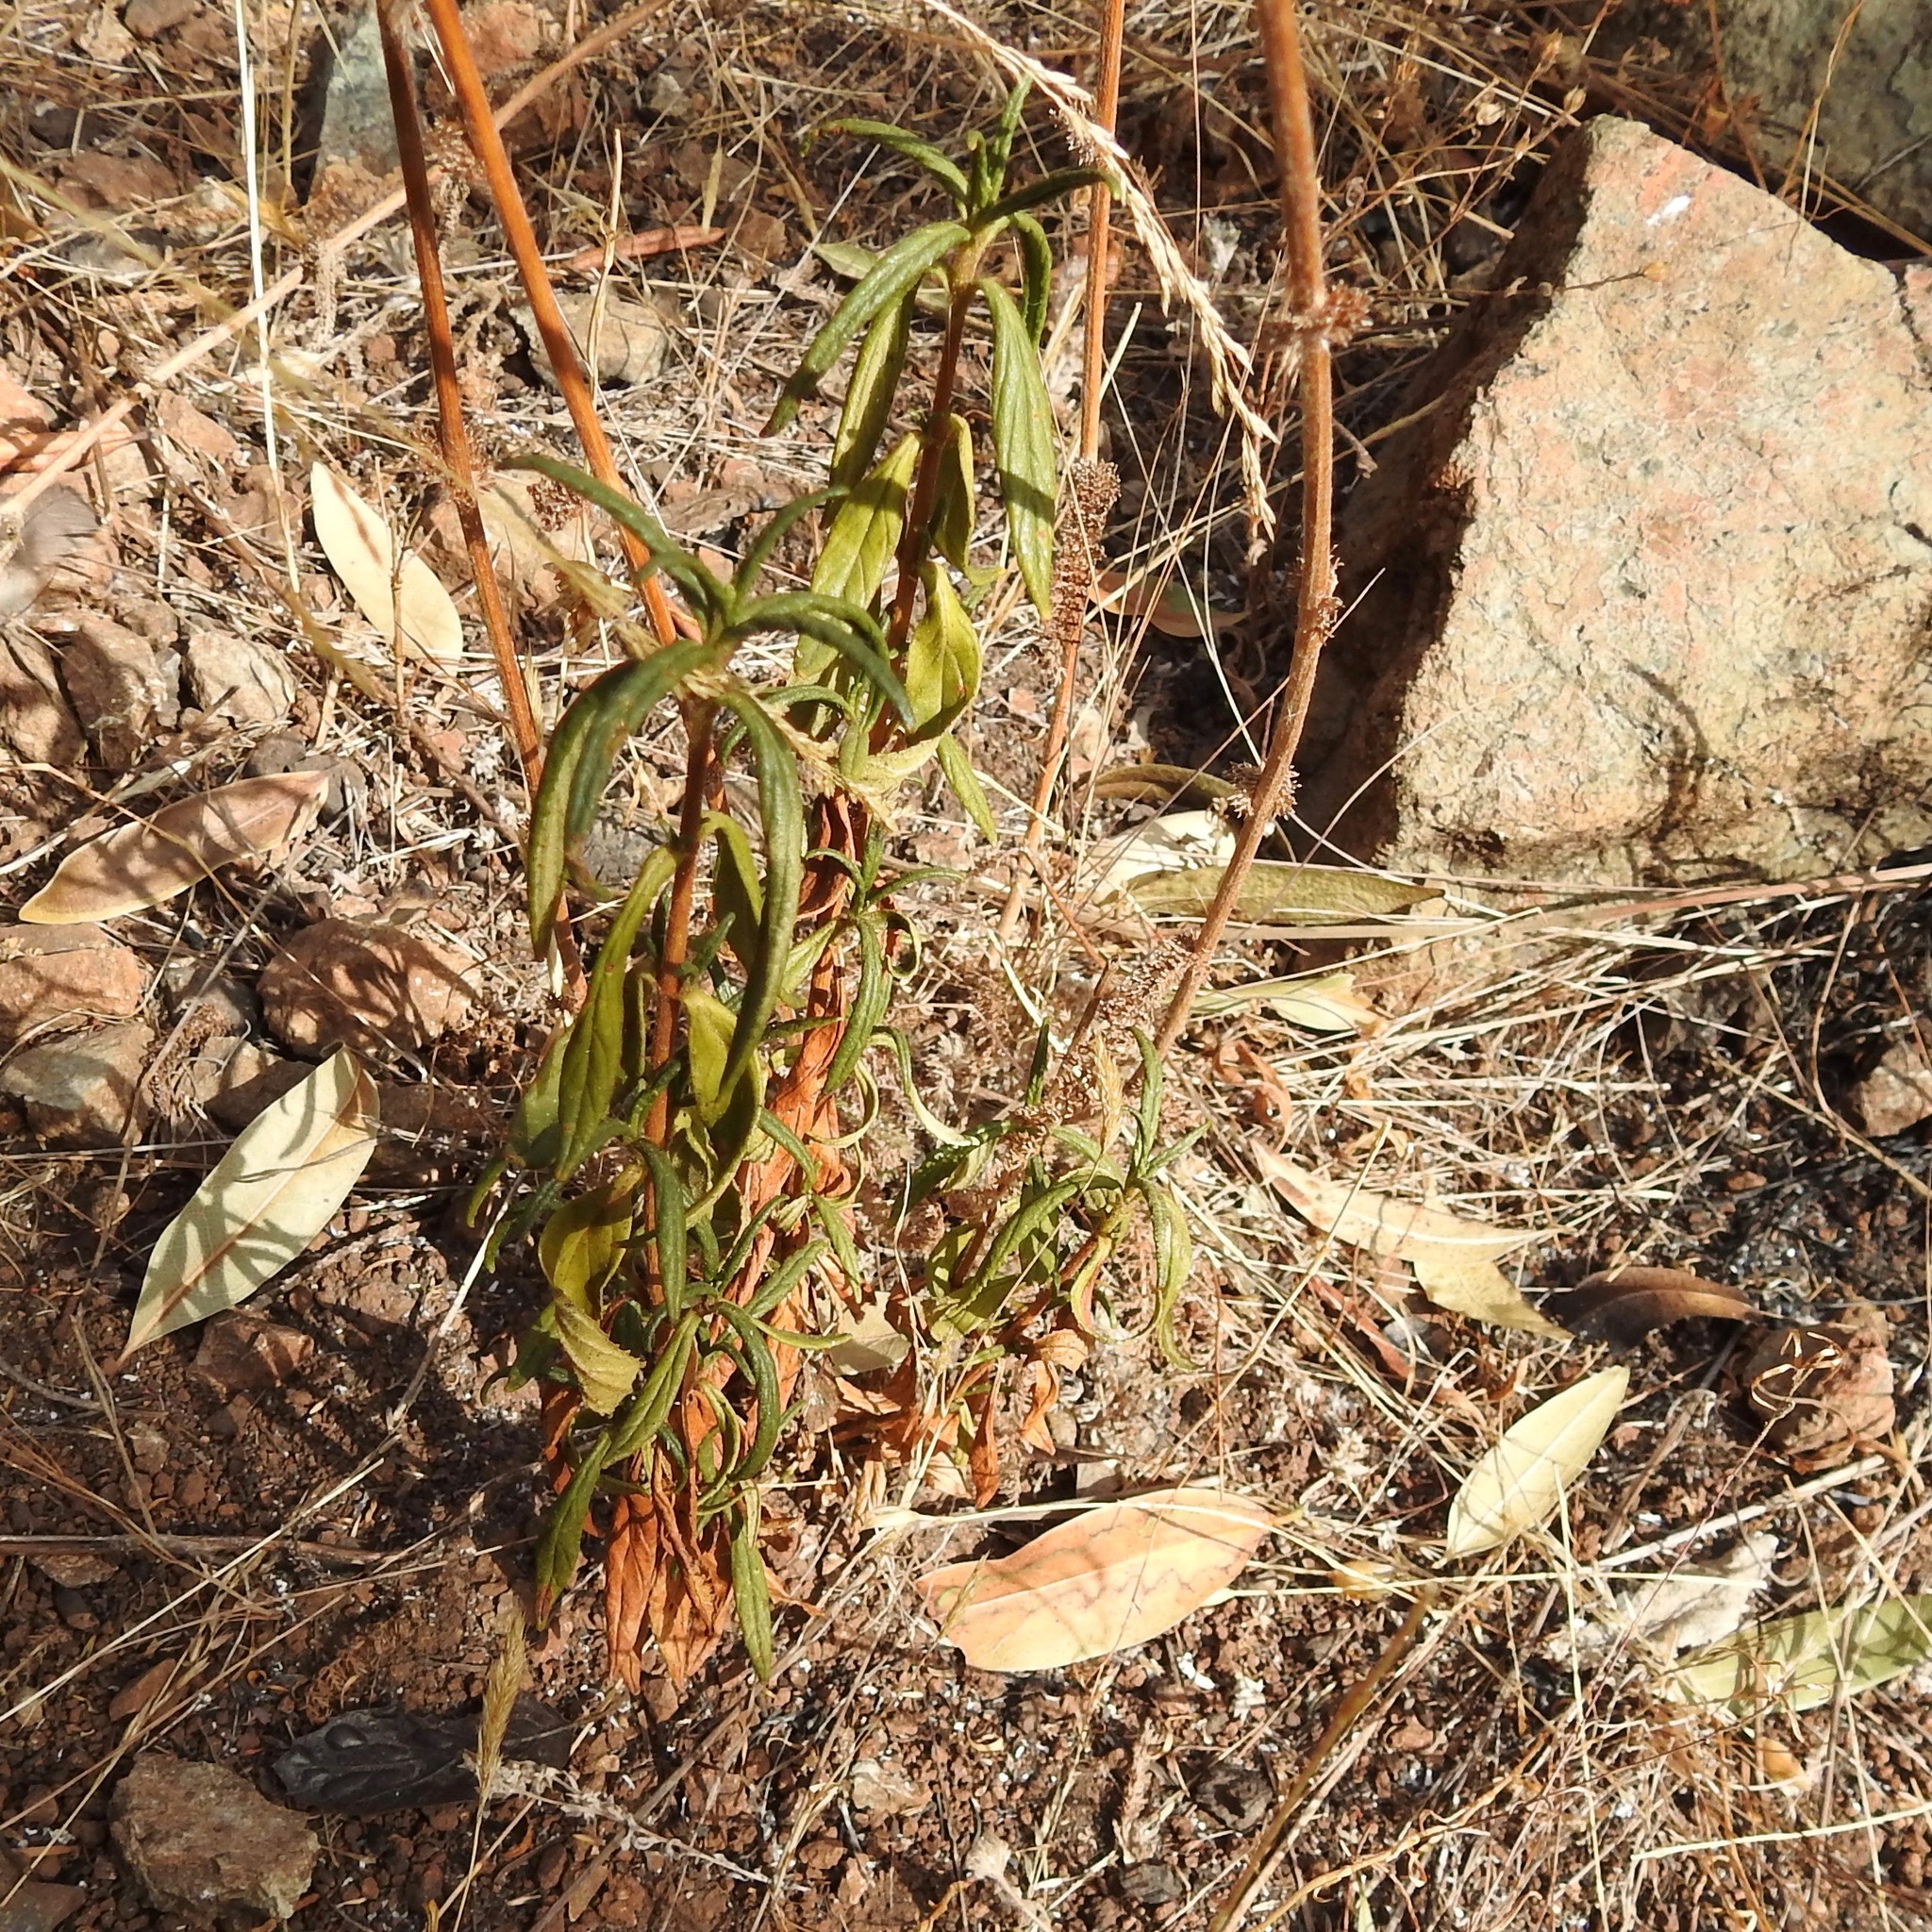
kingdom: Plantae
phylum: Tracheophyta
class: Magnoliopsida
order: Lamiales
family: Phrymaceae
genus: Diplacus
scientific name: Diplacus aurantiacus
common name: Bush monkey-flower
